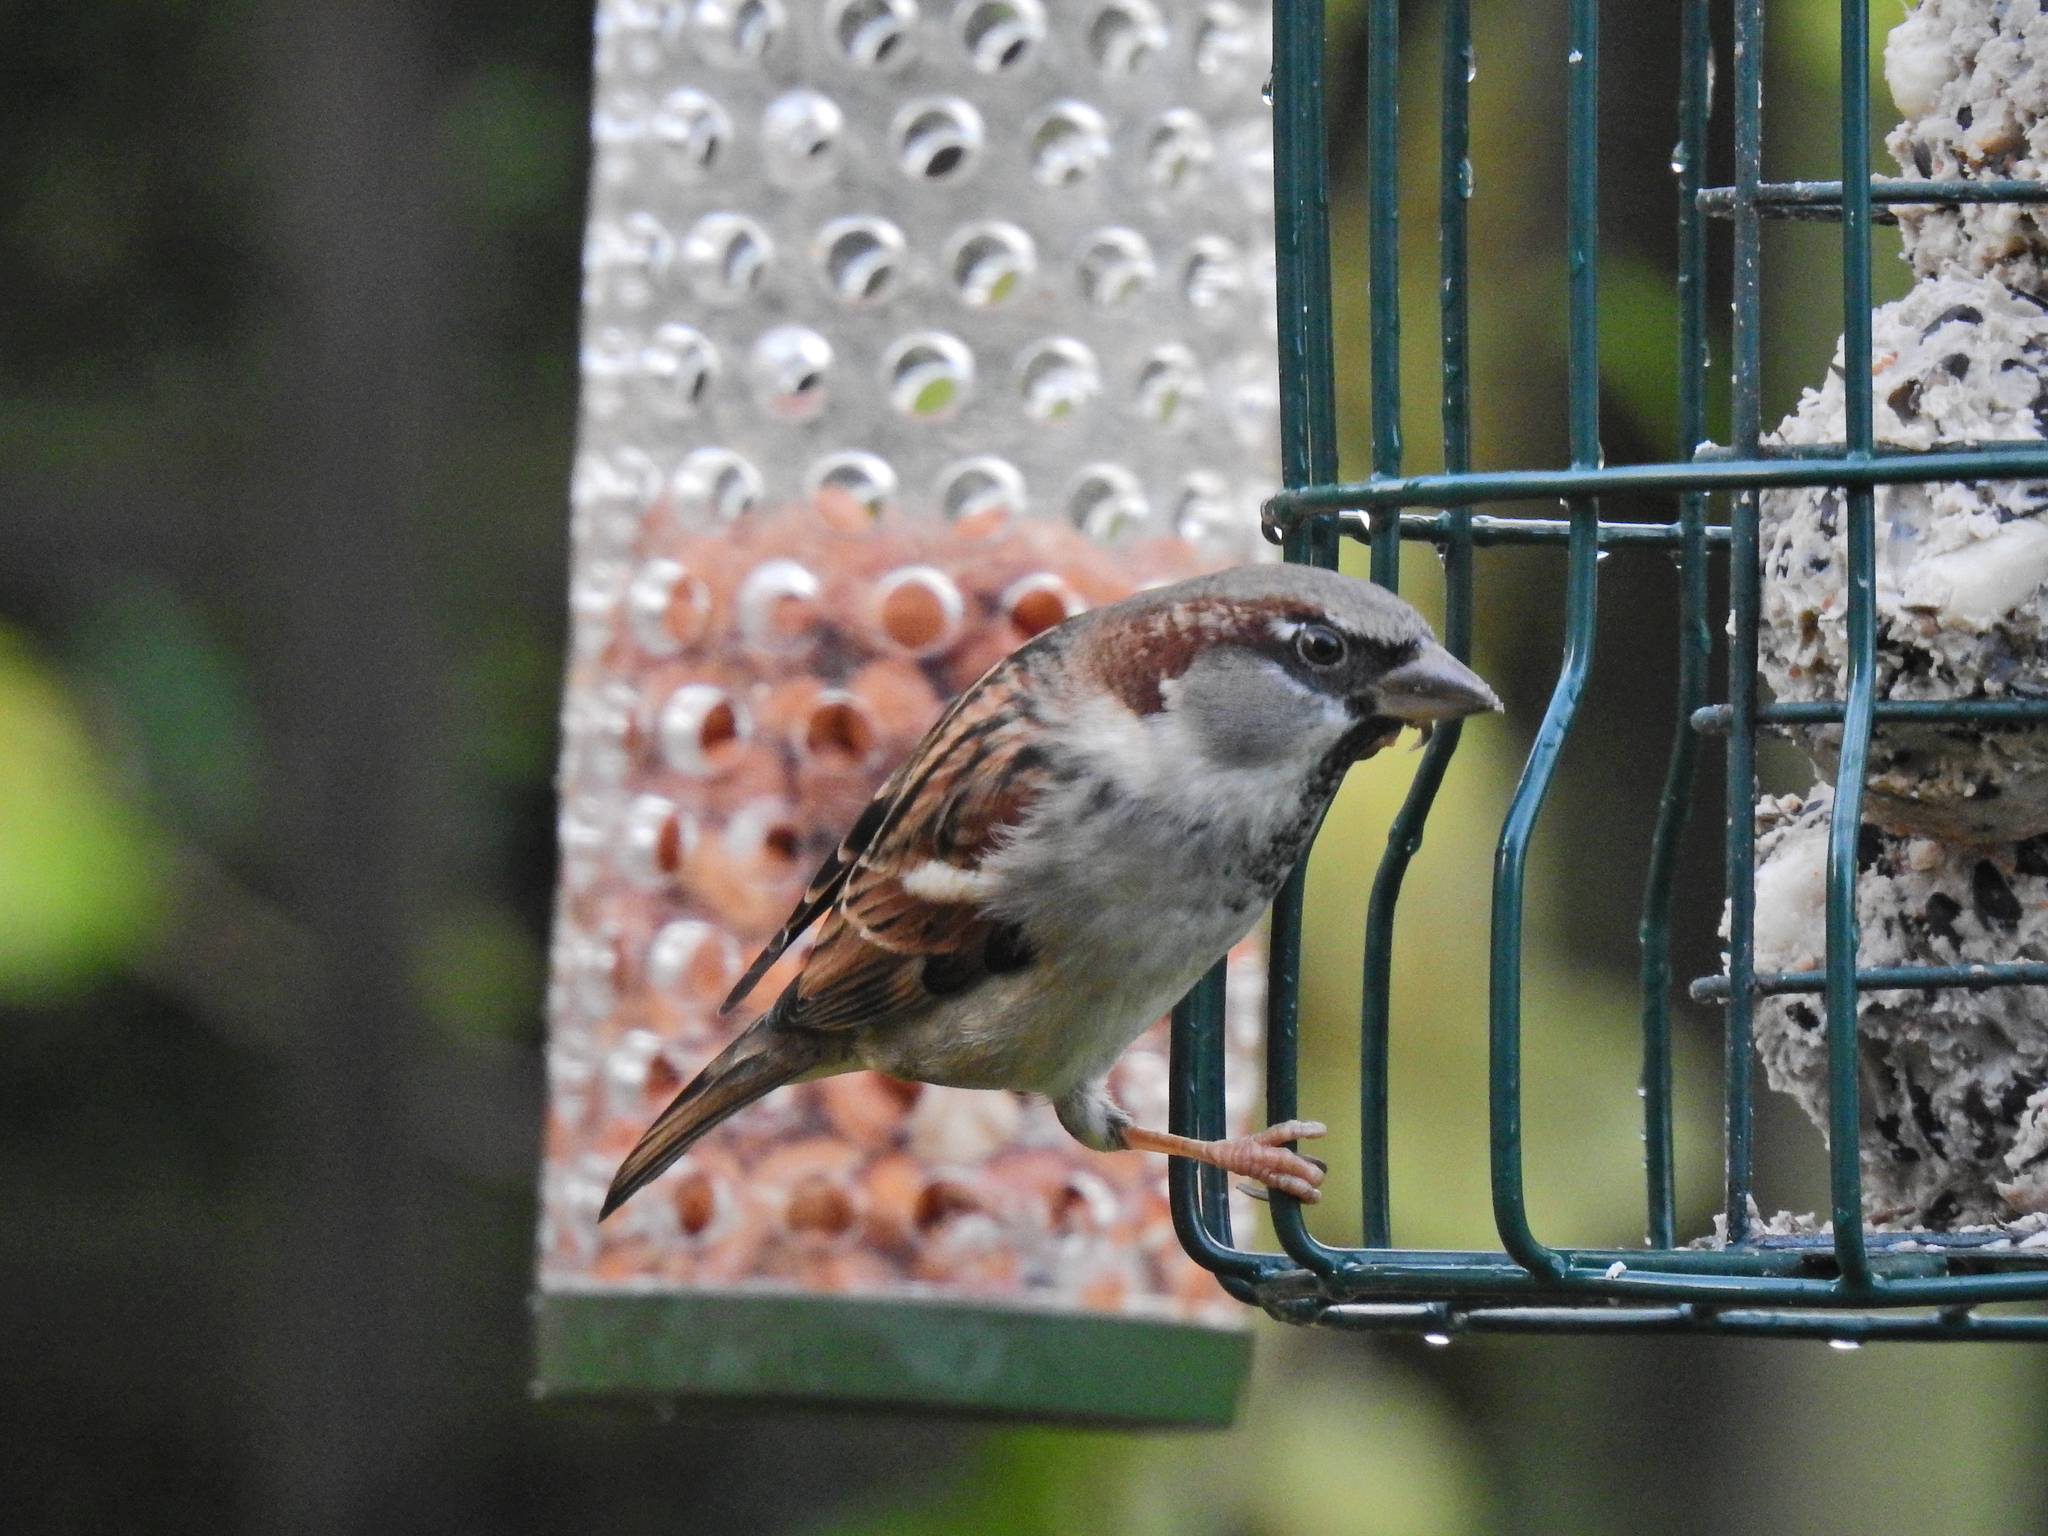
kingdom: Animalia
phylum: Chordata
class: Aves
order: Passeriformes
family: Passeridae
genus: Passer
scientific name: Passer domesticus
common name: House sparrow
